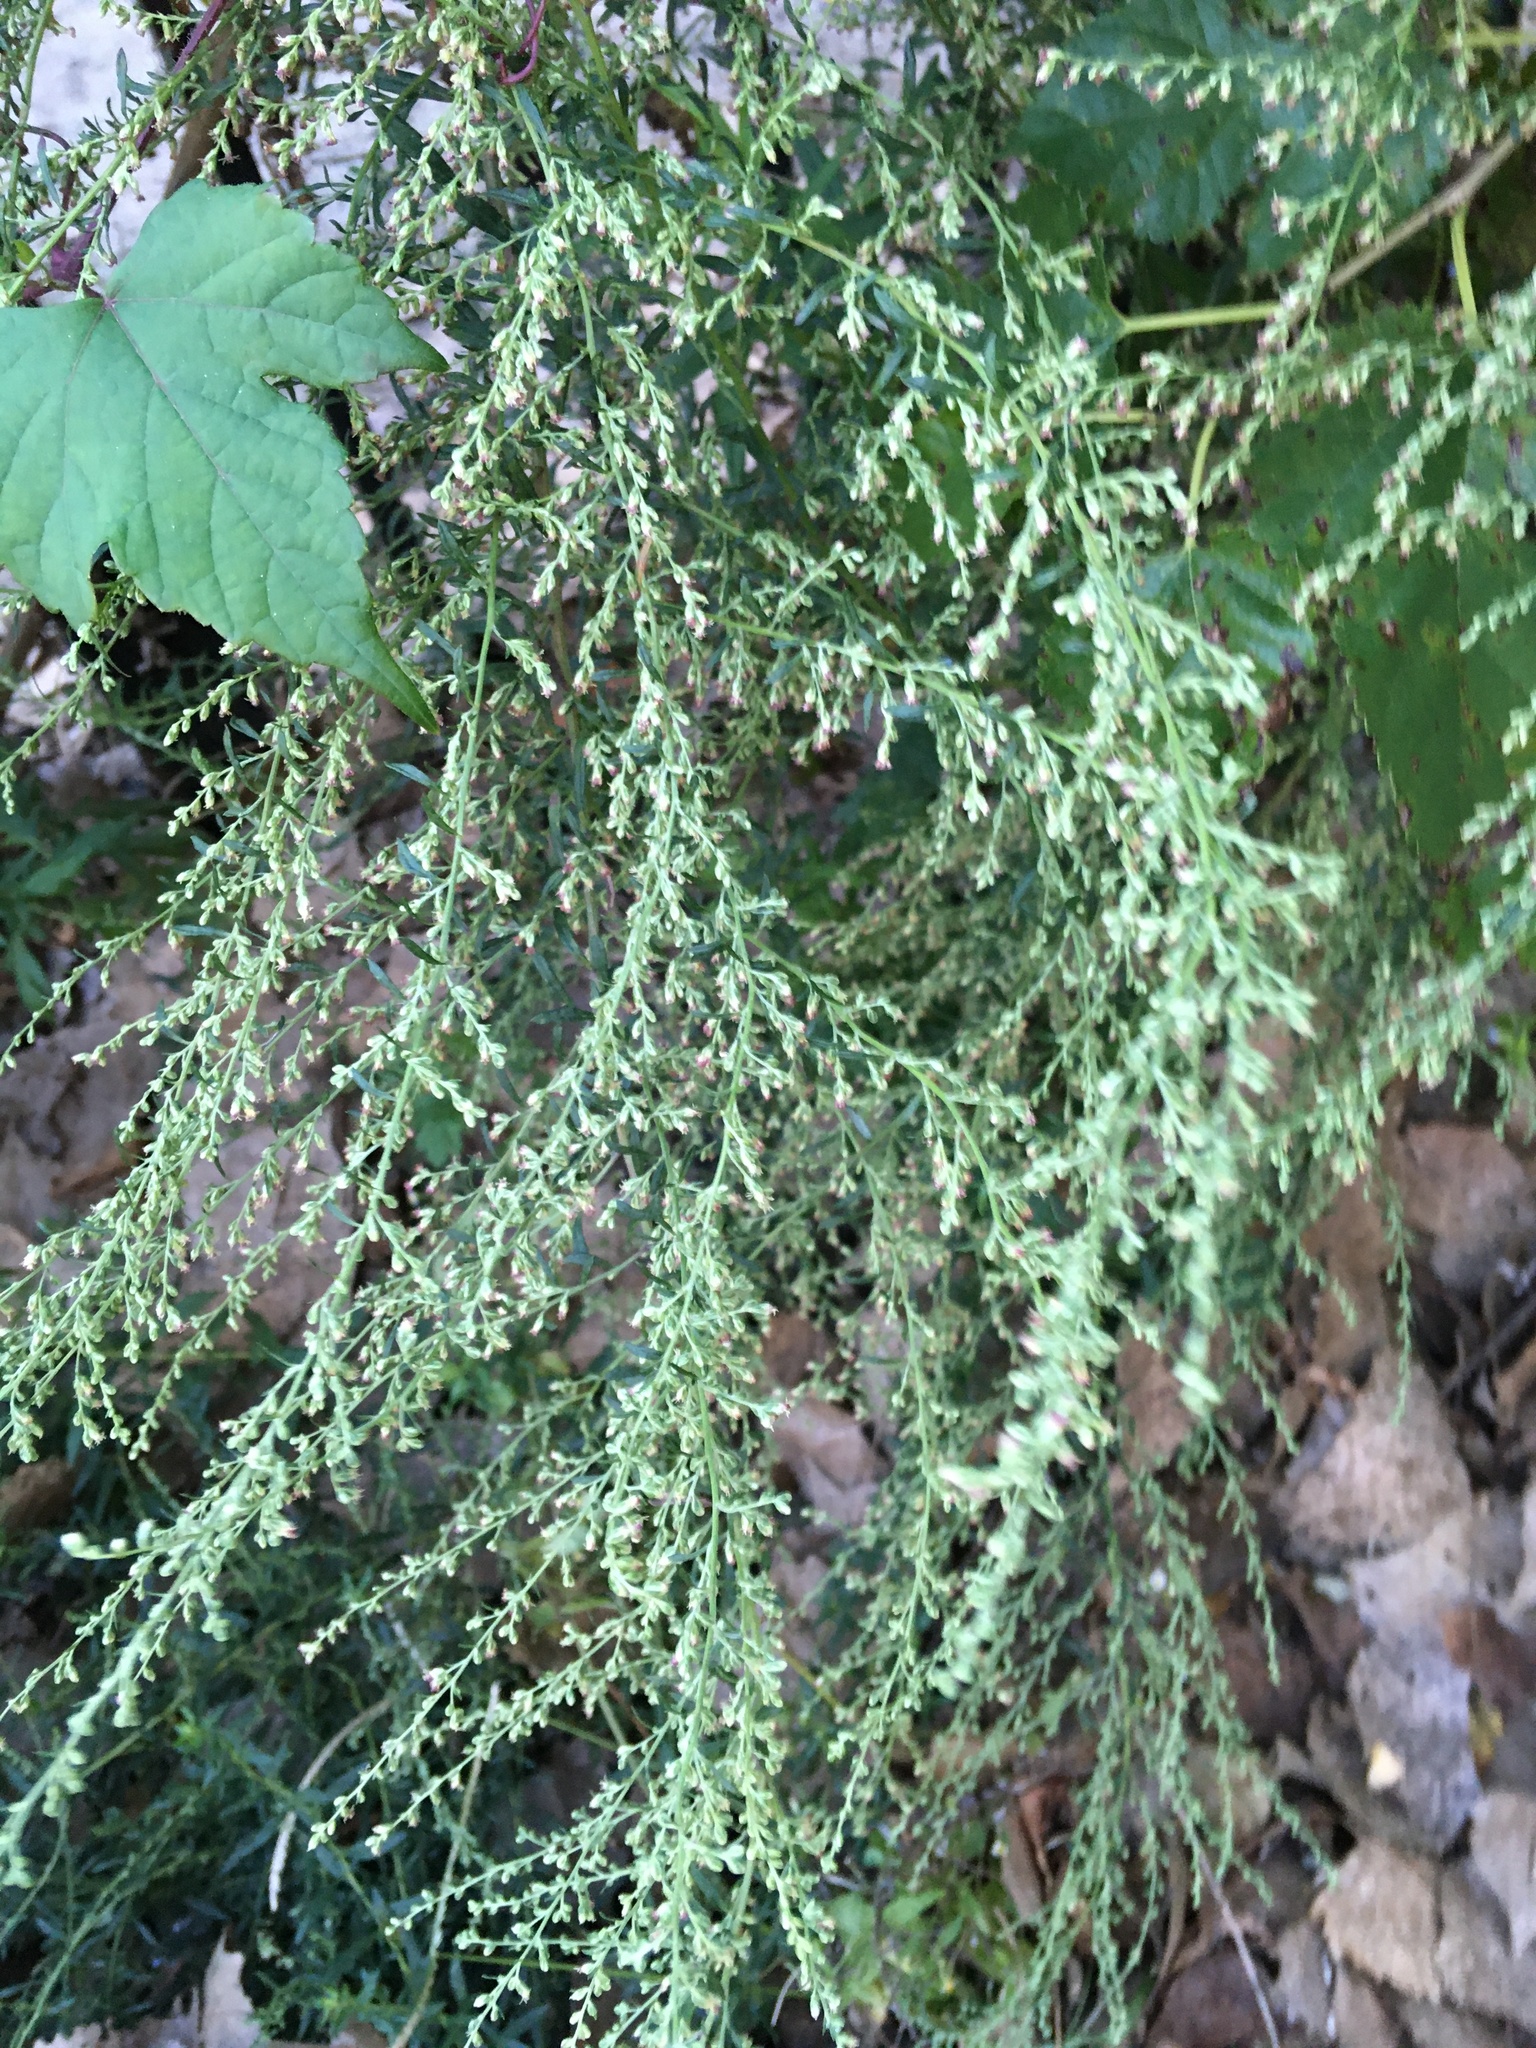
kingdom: Plantae
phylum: Tracheophyta
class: Magnoliopsida
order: Asterales
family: Asteraceae
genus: Artemisia
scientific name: Artemisia vulgaris
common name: Mugwort
